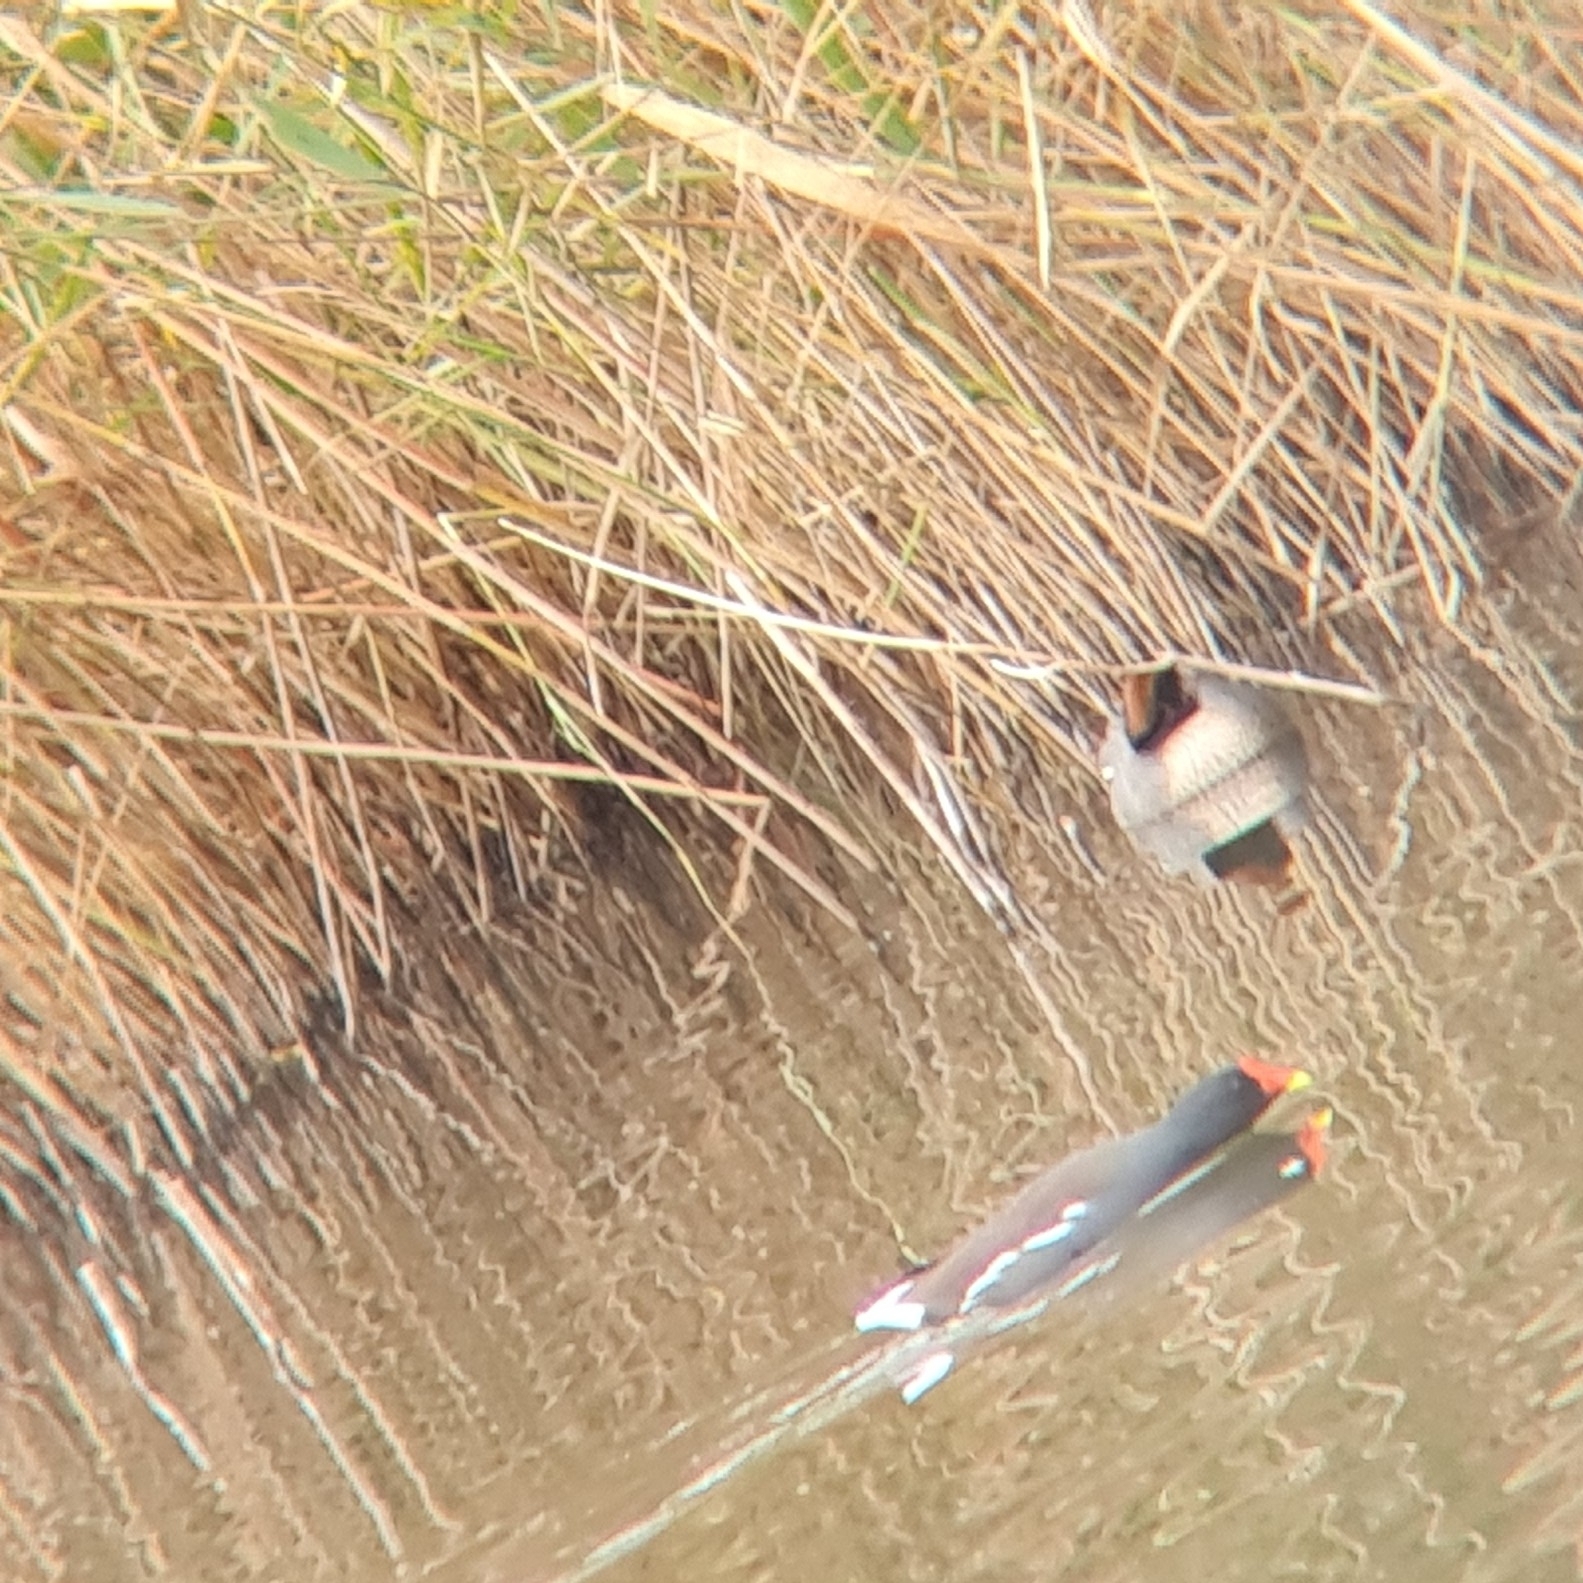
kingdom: Animalia
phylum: Chordata
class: Aves
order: Gruiformes
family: Rallidae
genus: Gallinula
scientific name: Gallinula chloropus
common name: Common moorhen
